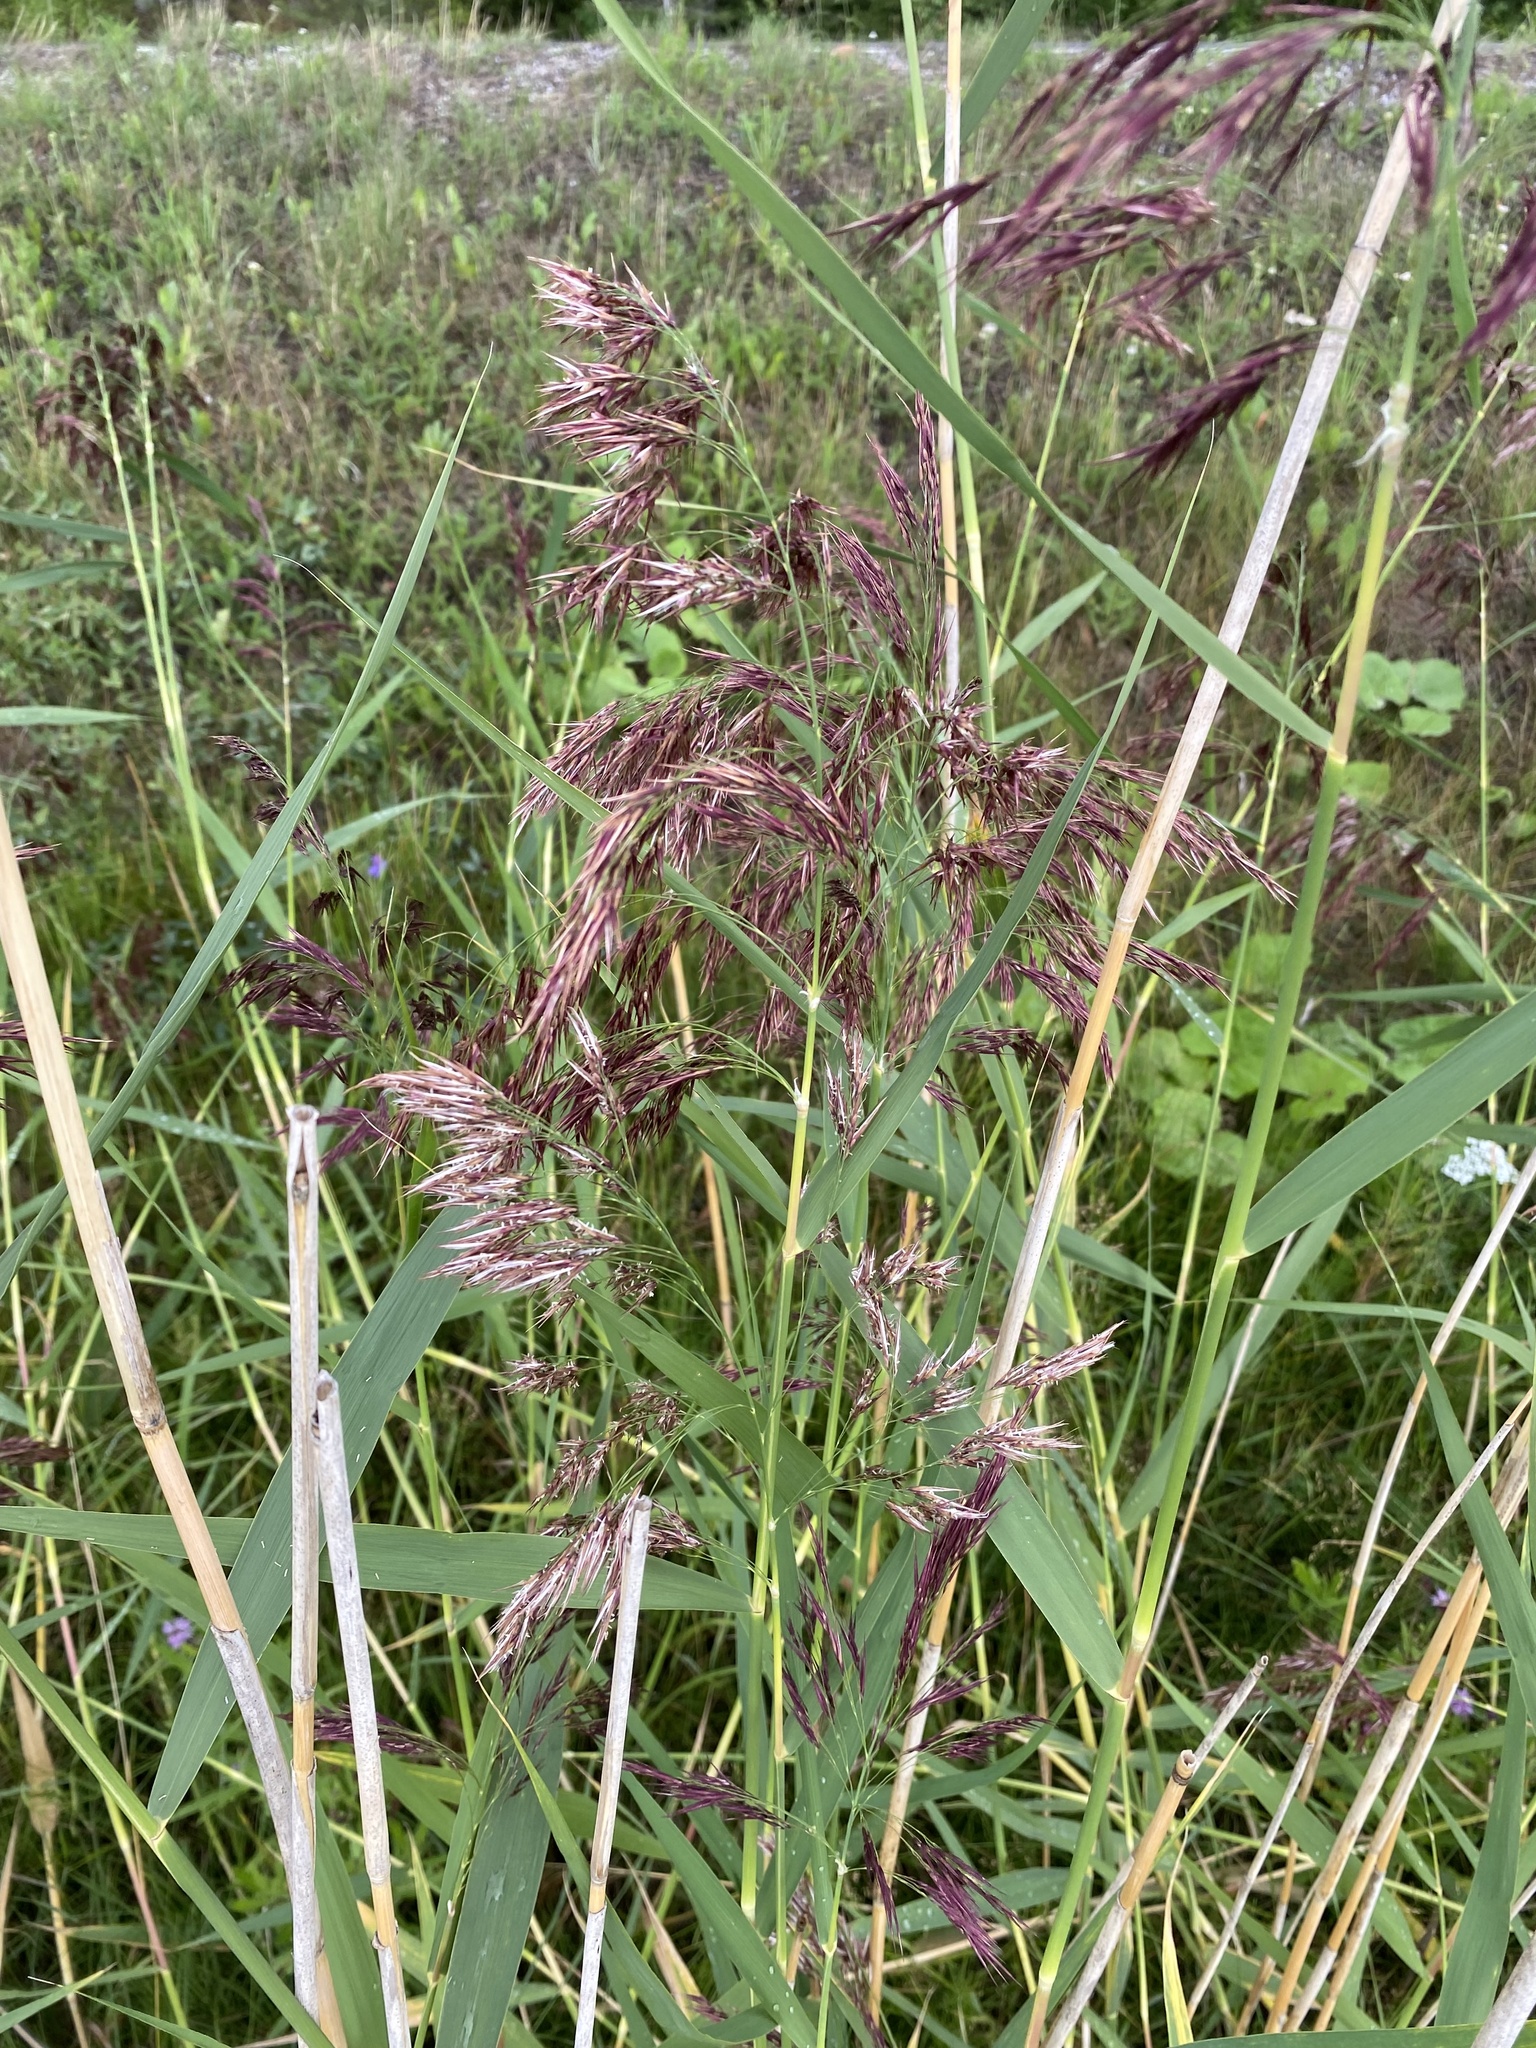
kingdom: Plantae
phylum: Tracheophyta
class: Liliopsida
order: Poales
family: Poaceae
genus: Phragmites
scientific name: Phragmites australis
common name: Common reed
